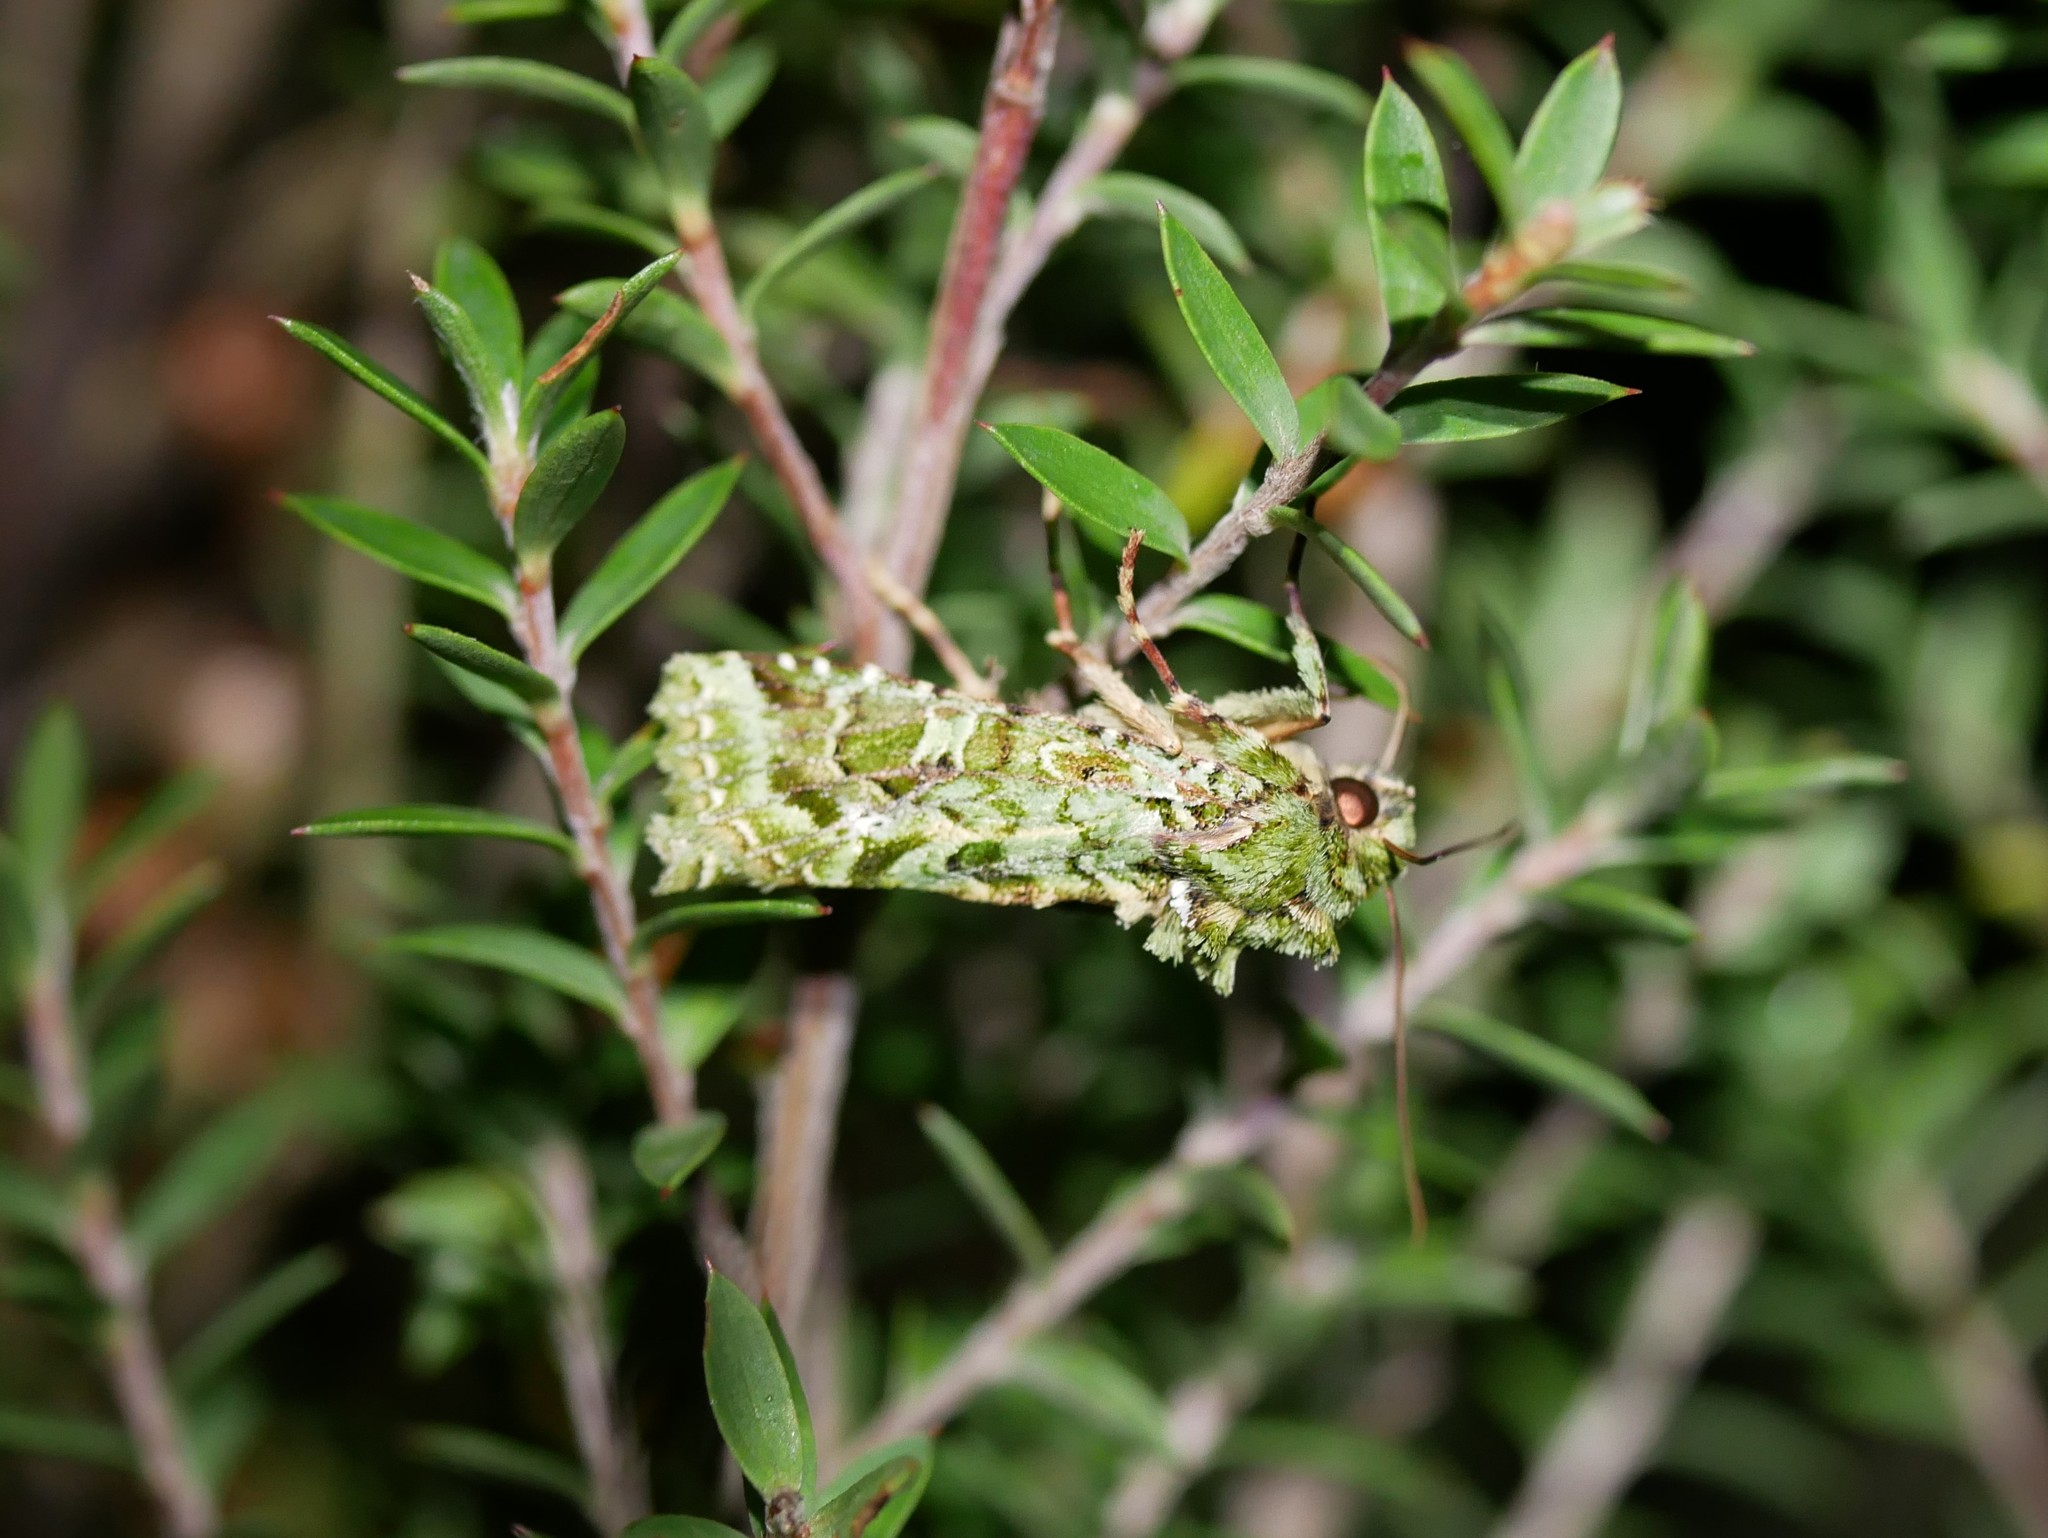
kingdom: Animalia
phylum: Arthropoda
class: Insecta
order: Lepidoptera
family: Noctuidae
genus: Feredayia
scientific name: Feredayia grammosa
